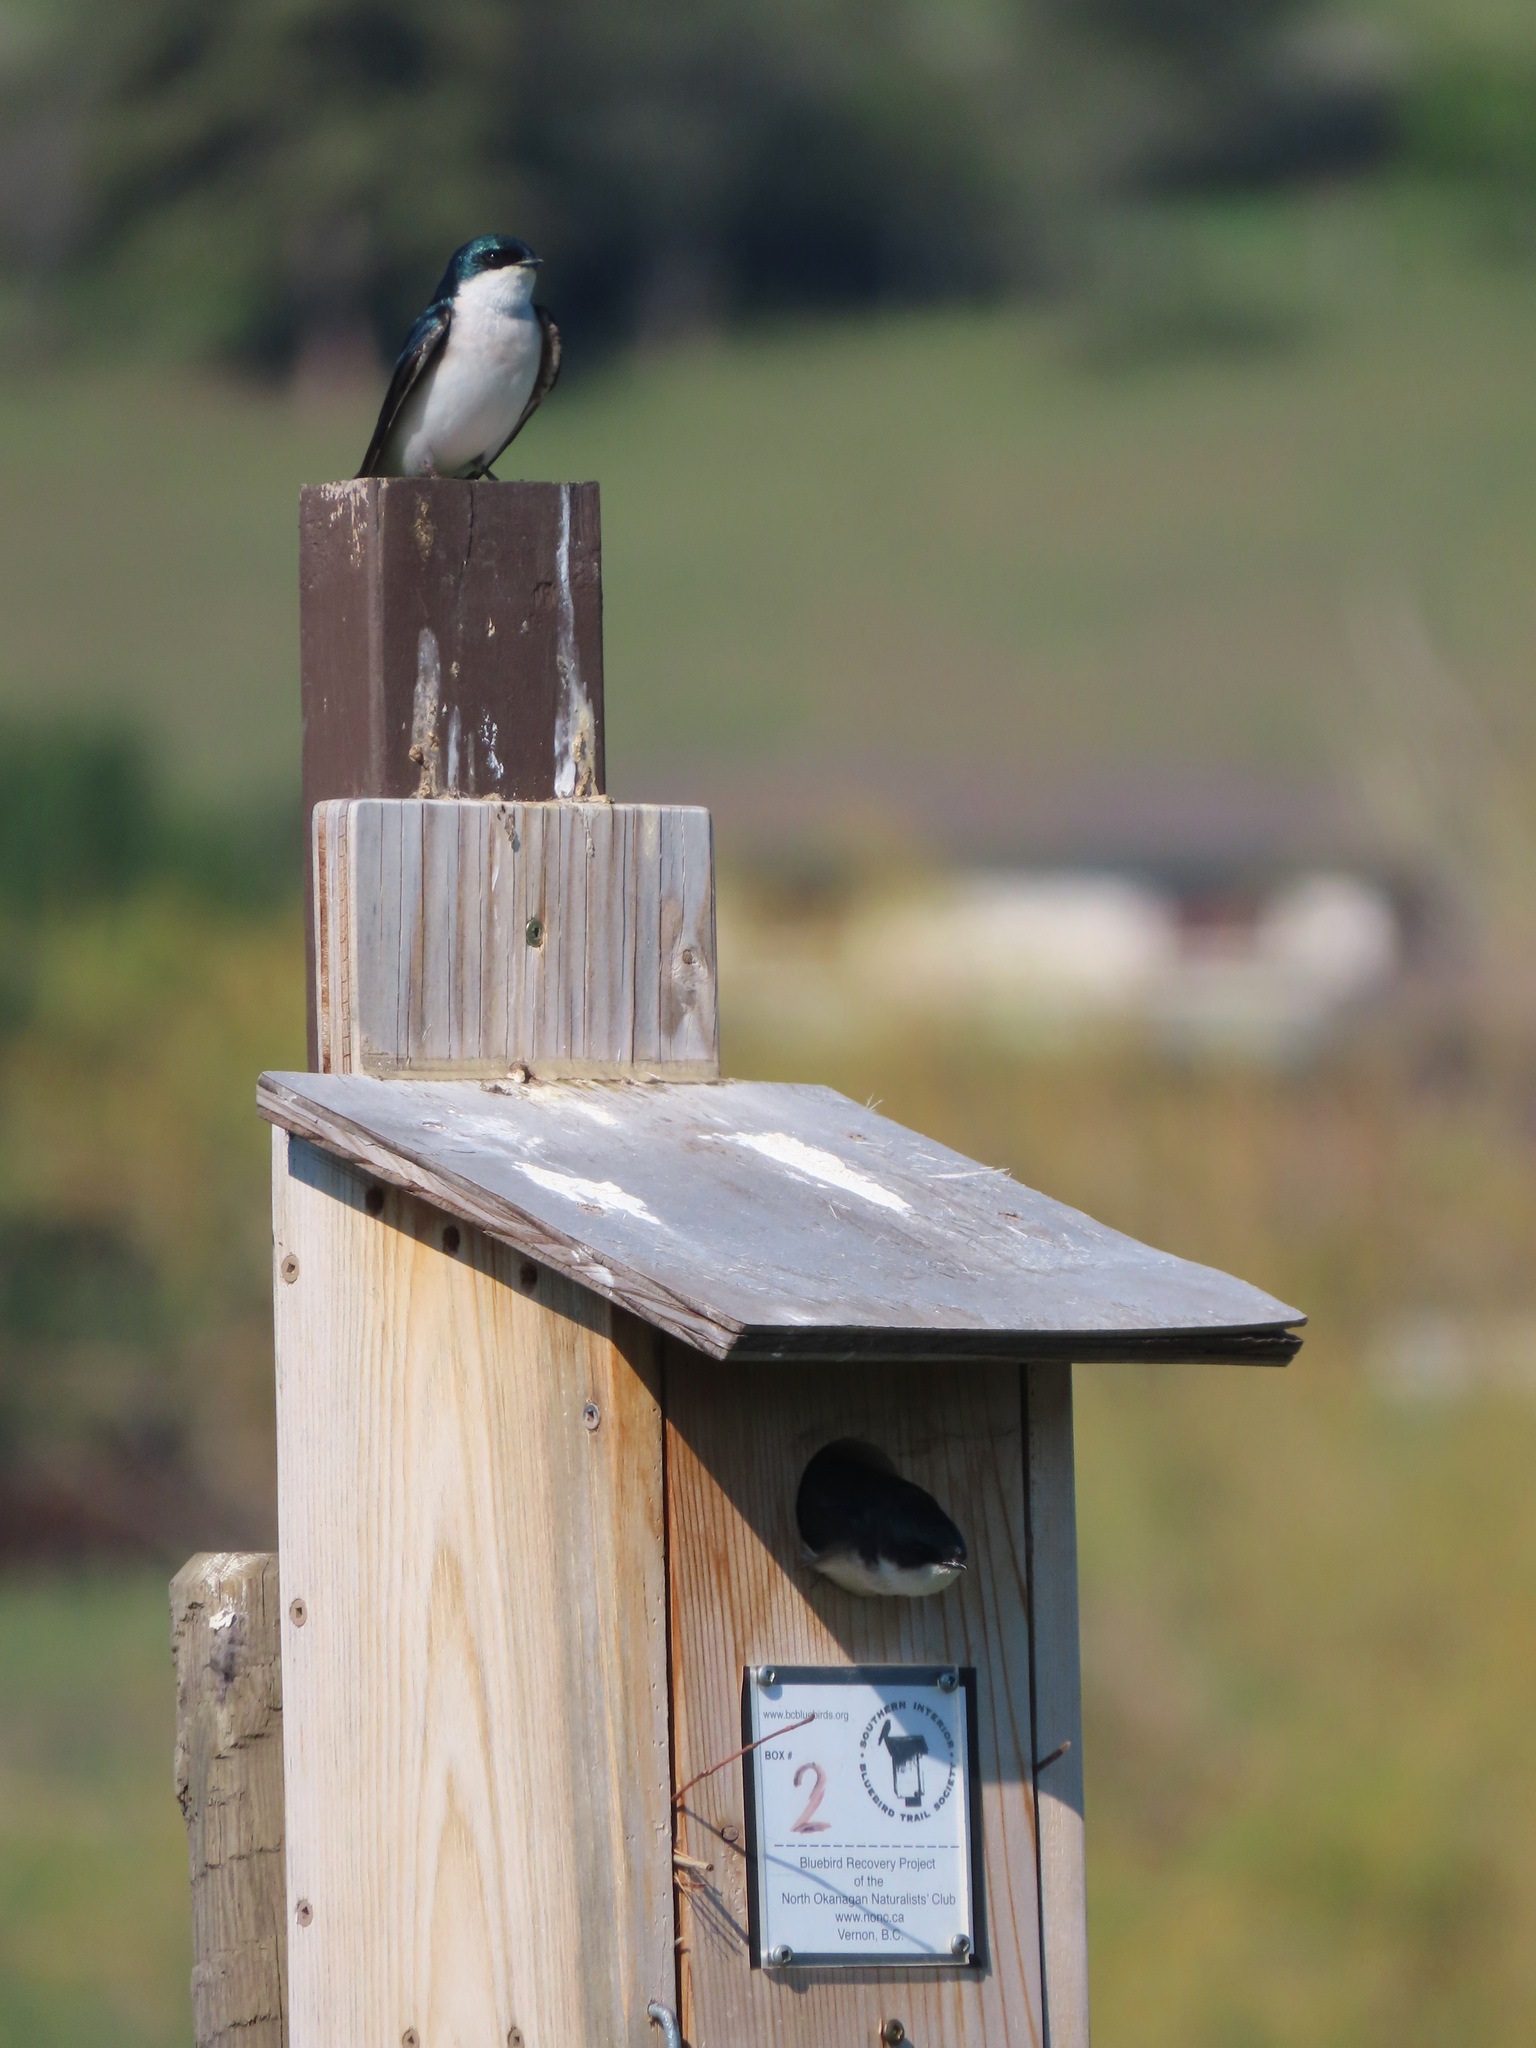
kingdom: Animalia
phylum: Chordata
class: Aves
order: Passeriformes
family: Hirundinidae
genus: Tachycineta
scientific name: Tachycineta bicolor
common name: Tree swallow
